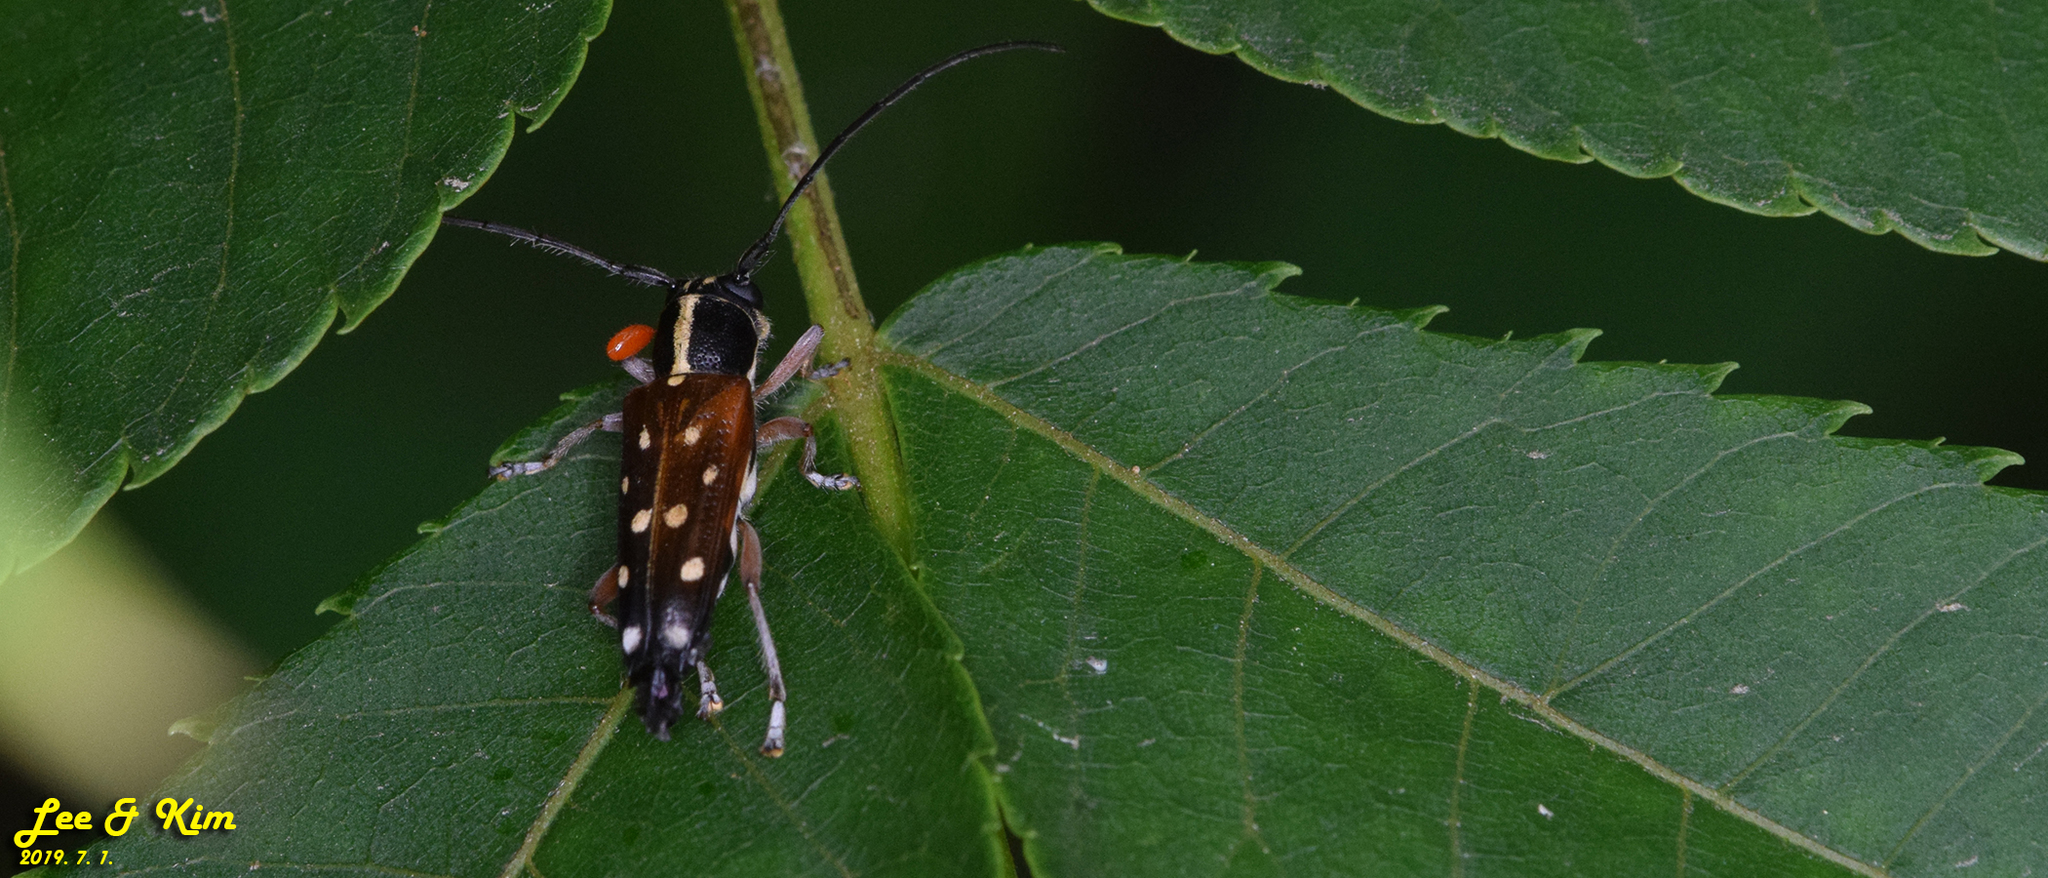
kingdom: Animalia
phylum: Arthropoda
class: Insecta
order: Coleoptera
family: Cerambycidae
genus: Glenea
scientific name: Glenea relicta
